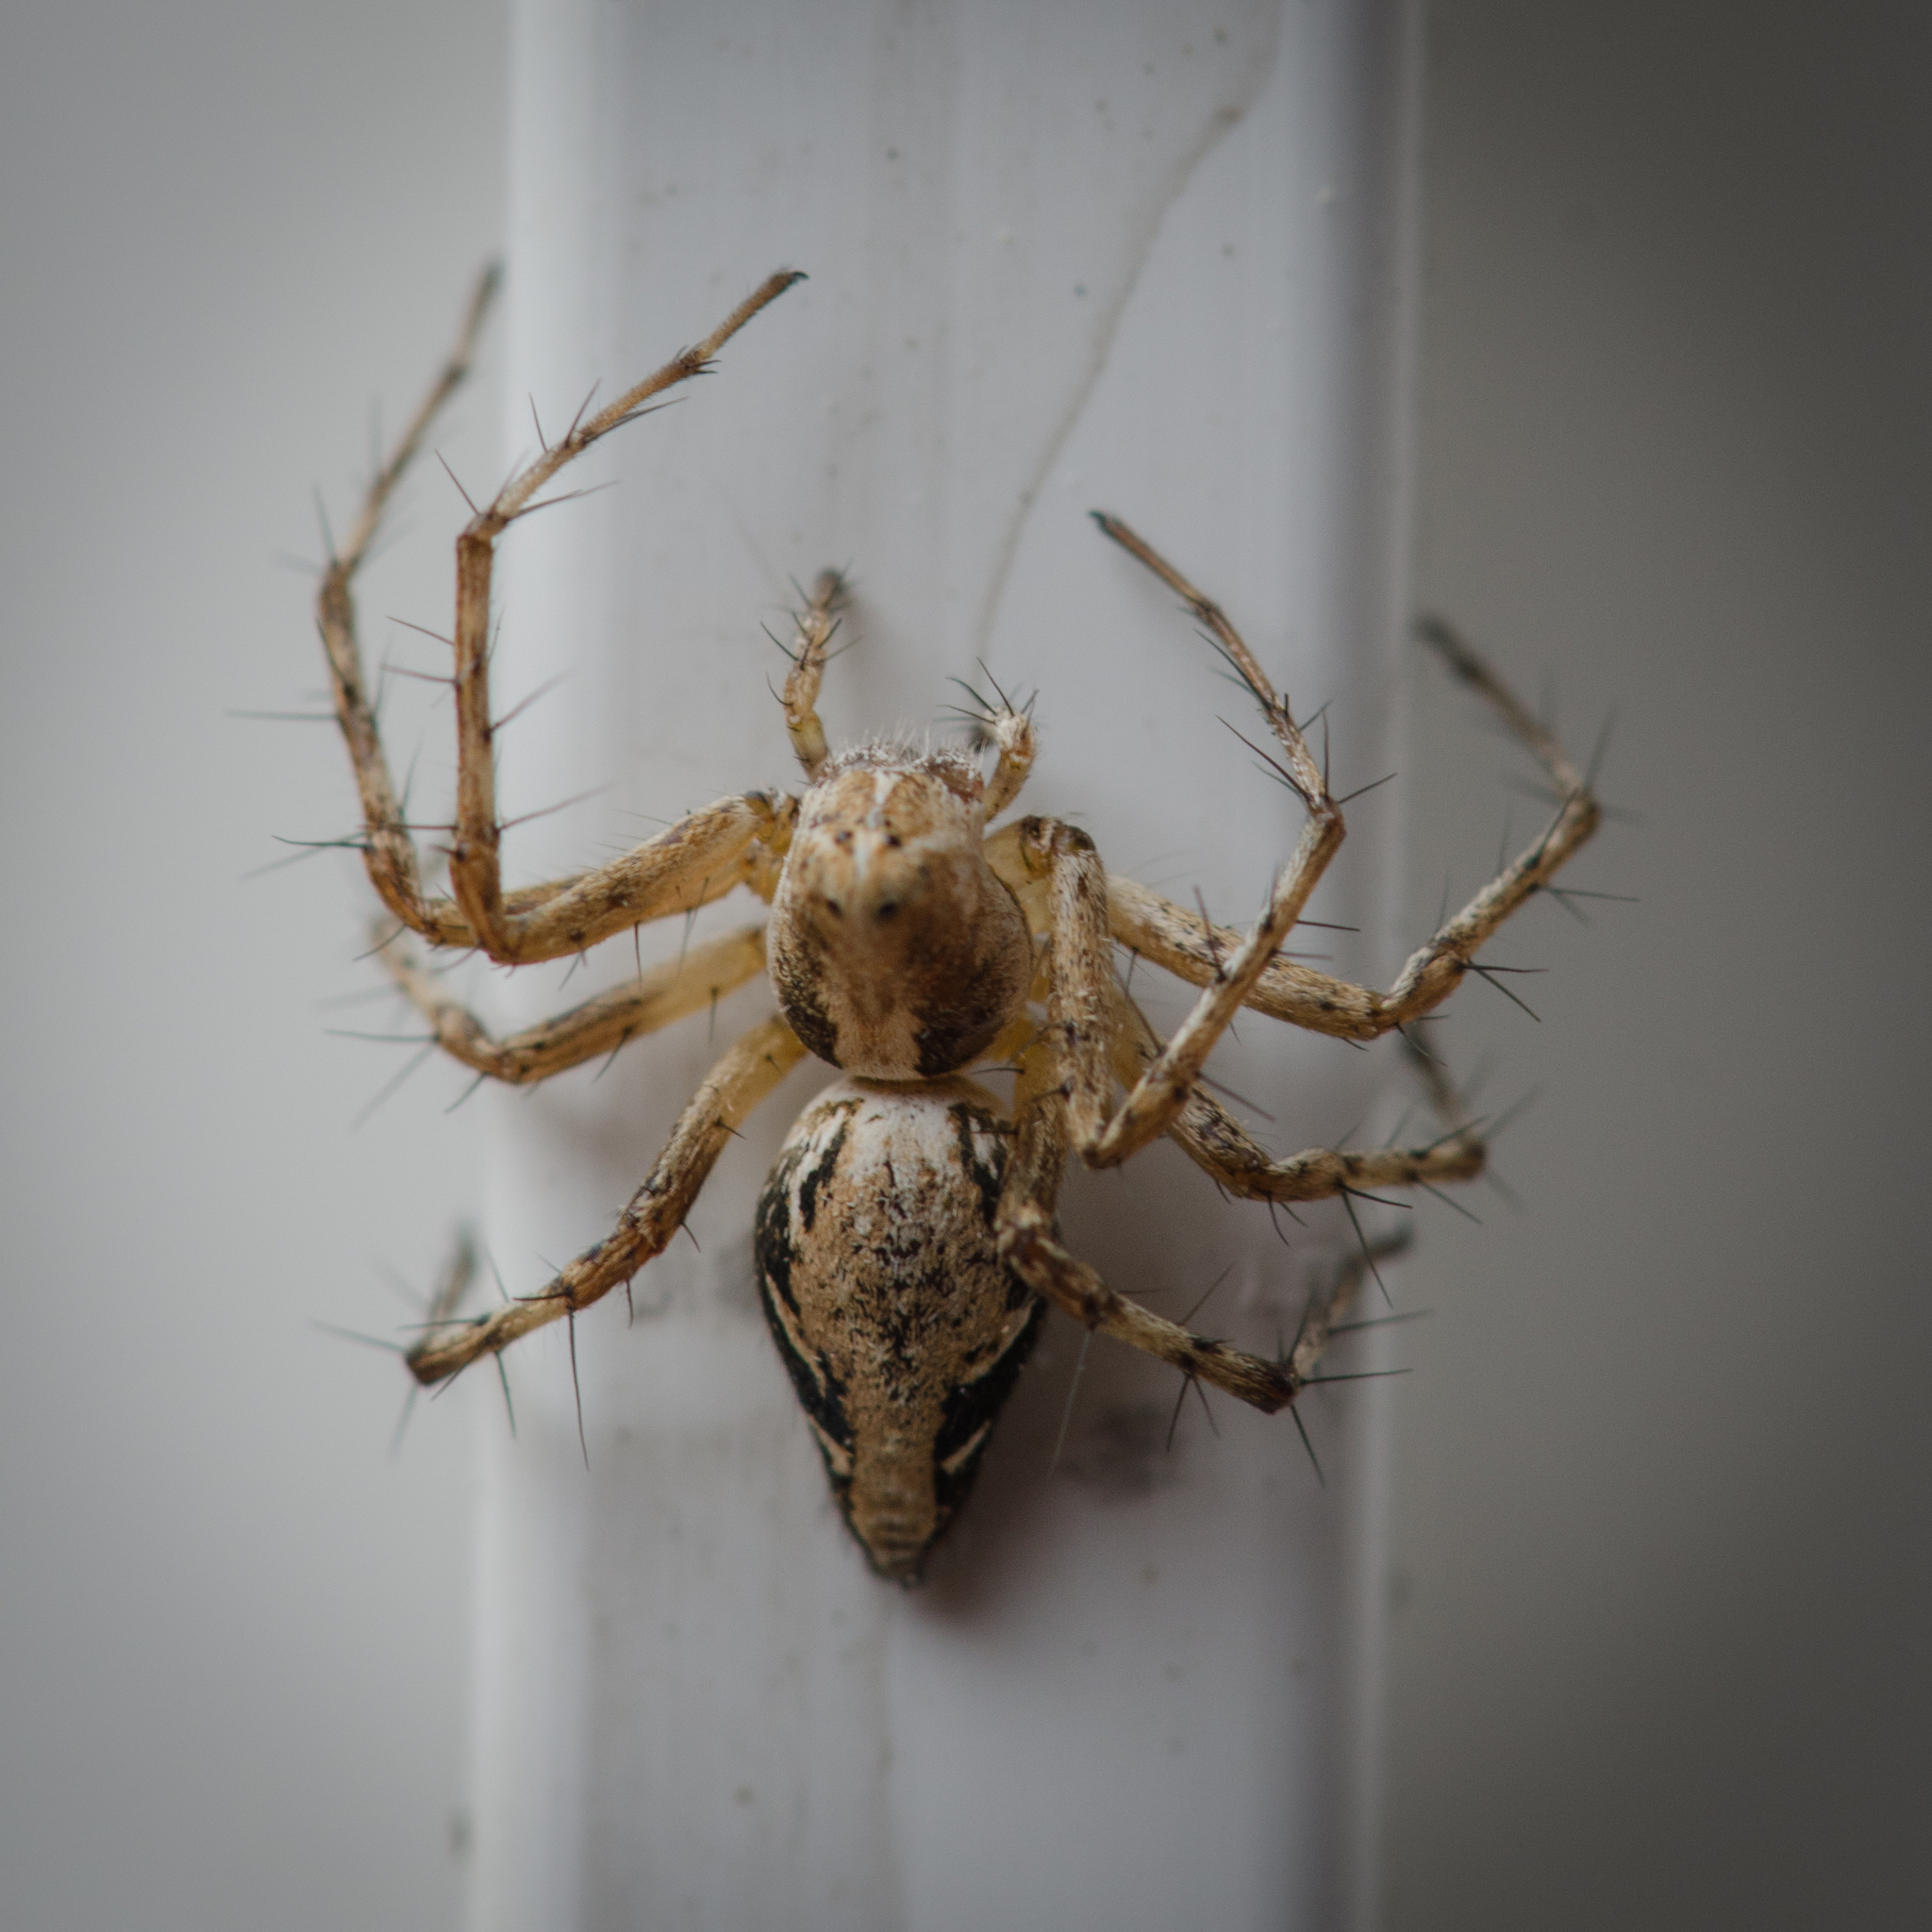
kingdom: Animalia
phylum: Arthropoda
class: Arachnida
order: Araneae
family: Oxyopidae
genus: Oxyopes
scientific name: Oxyopes scalaris
